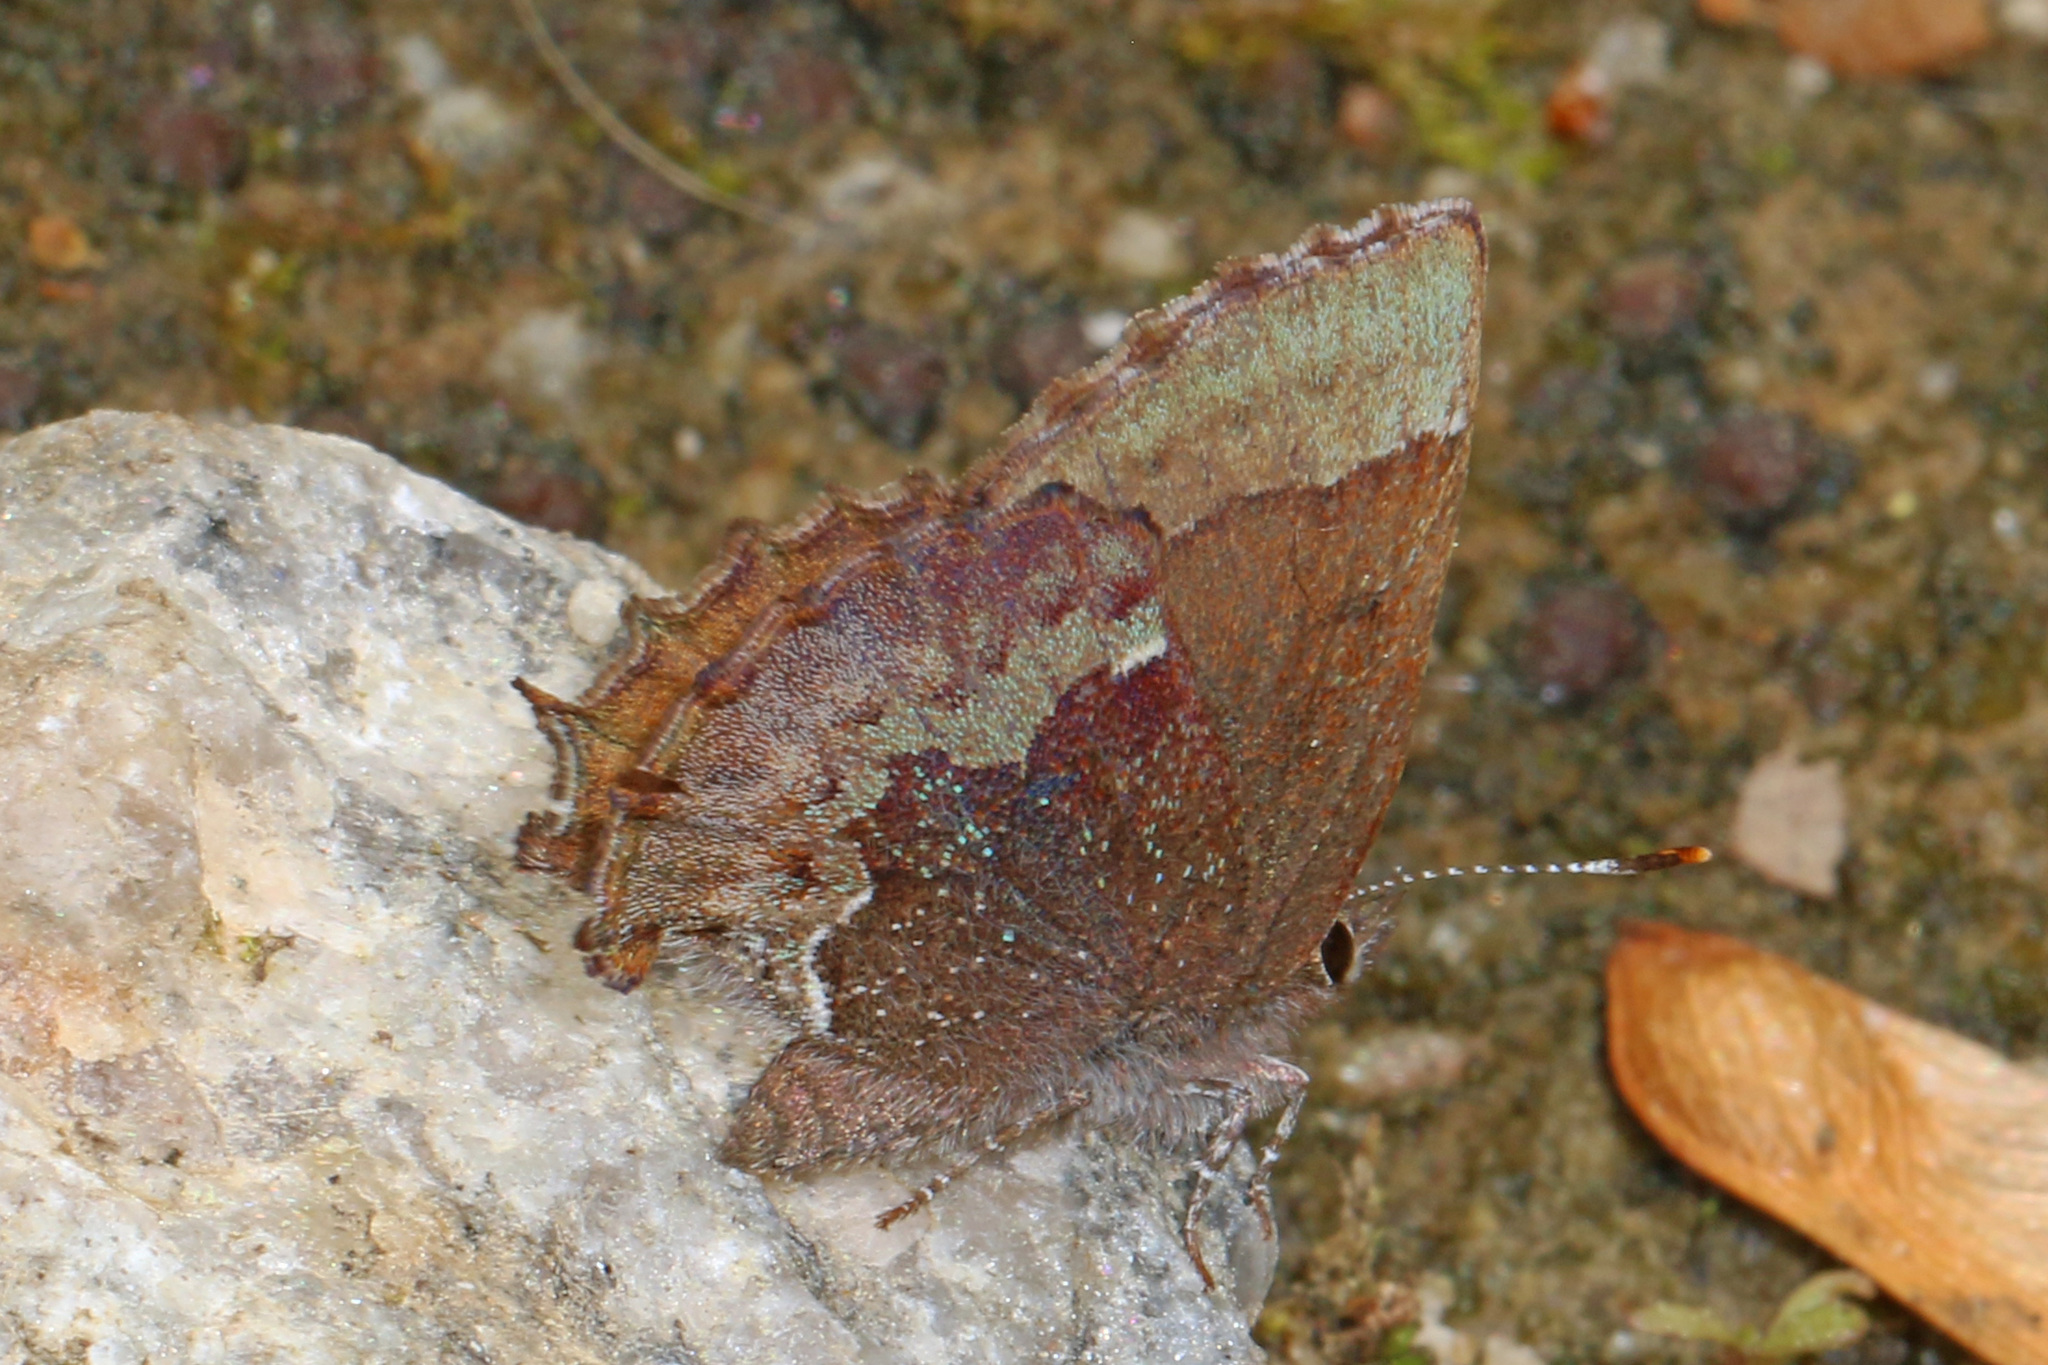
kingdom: Animalia
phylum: Arthropoda
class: Insecta
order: Lepidoptera
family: Lycaenidae
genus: Incisalia
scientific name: Incisalia henrici
